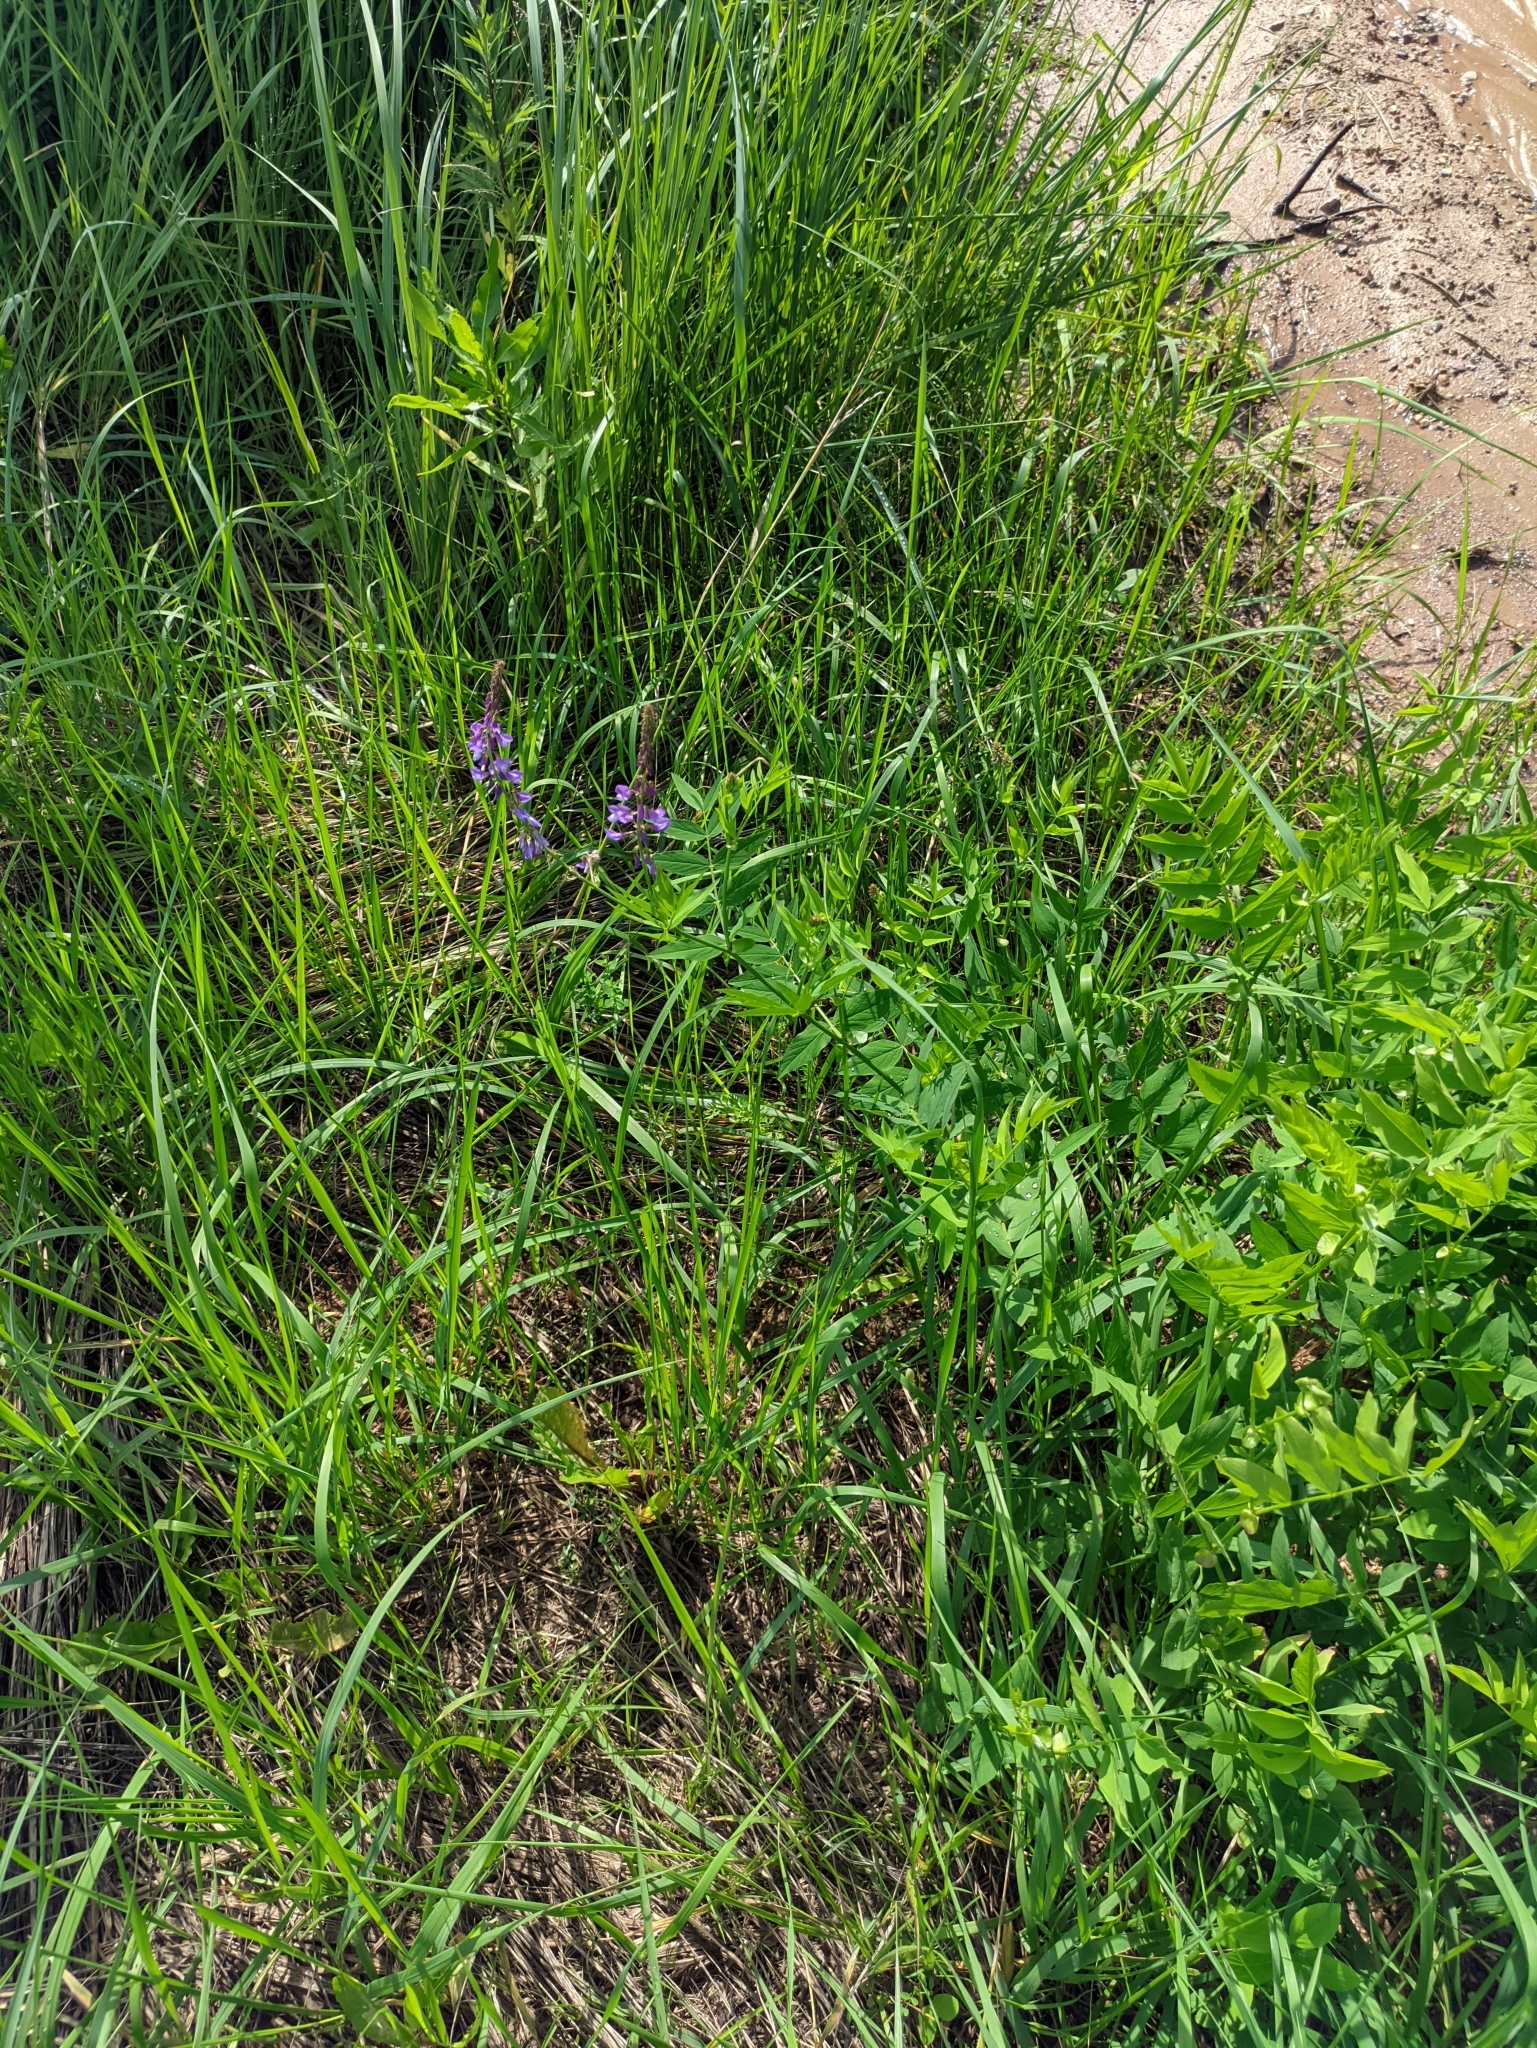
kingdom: Plantae
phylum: Tracheophyta
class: Magnoliopsida
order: Fabales
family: Fabaceae
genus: Galega
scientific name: Galega orientalis
